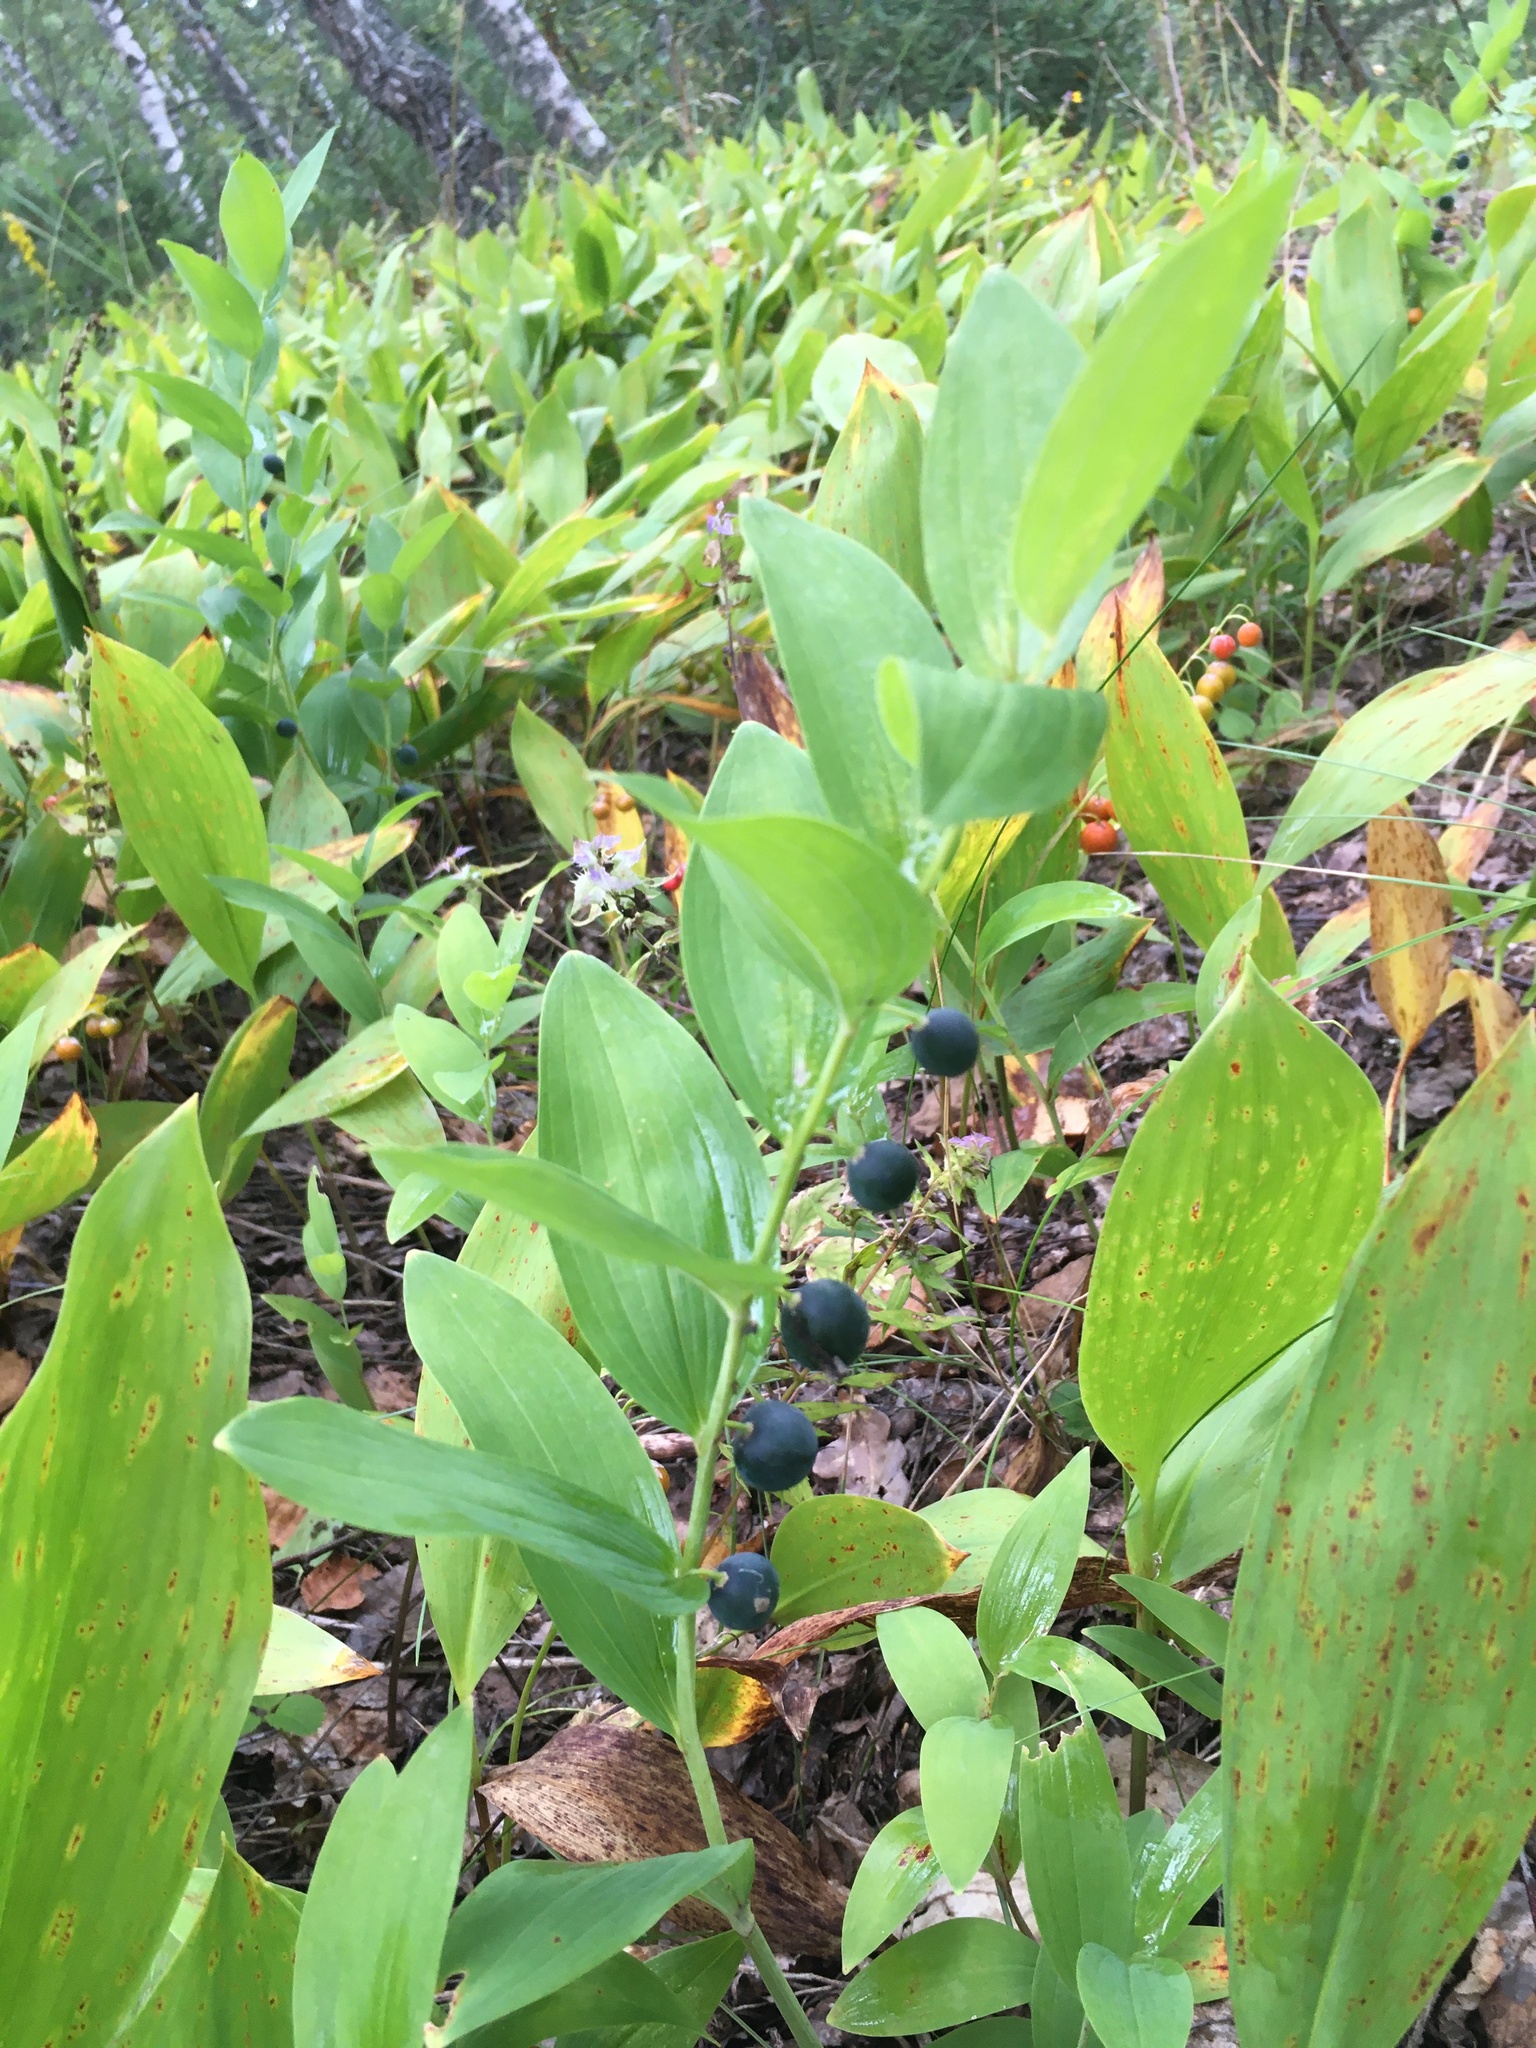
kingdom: Plantae
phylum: Tracheophyta
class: Liliopsida
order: Asparagales
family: Asparagaceae
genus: Polygonatum
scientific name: Polygonatum odoratum
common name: Angular solomon's-seal
